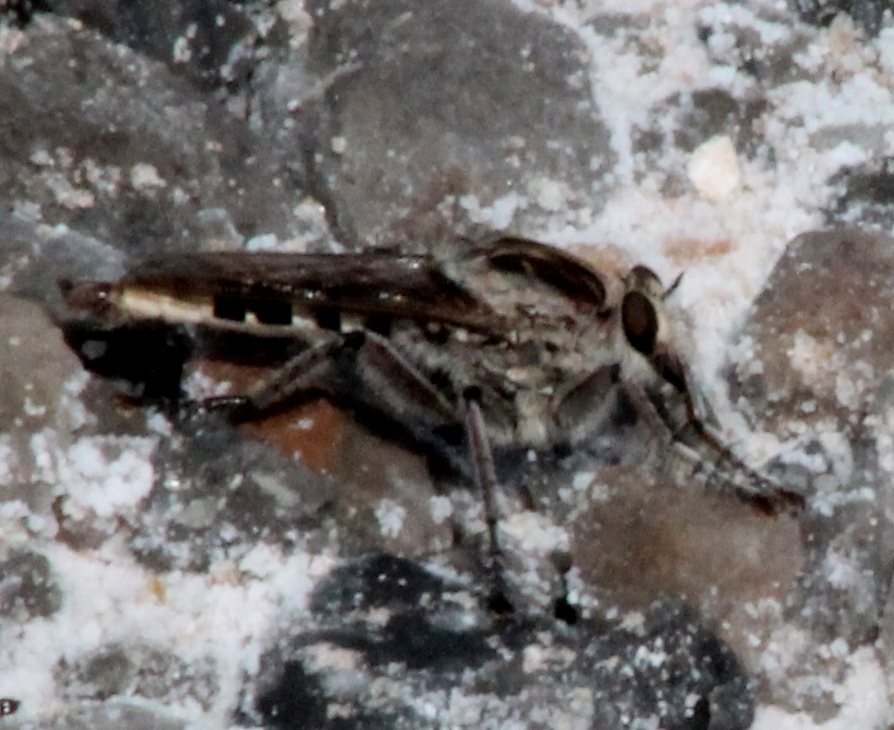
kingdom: Animalia
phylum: Arthropoda
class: Insecta
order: Diptera
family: Asilidae
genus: Triorla
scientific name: Triorla interrupta
